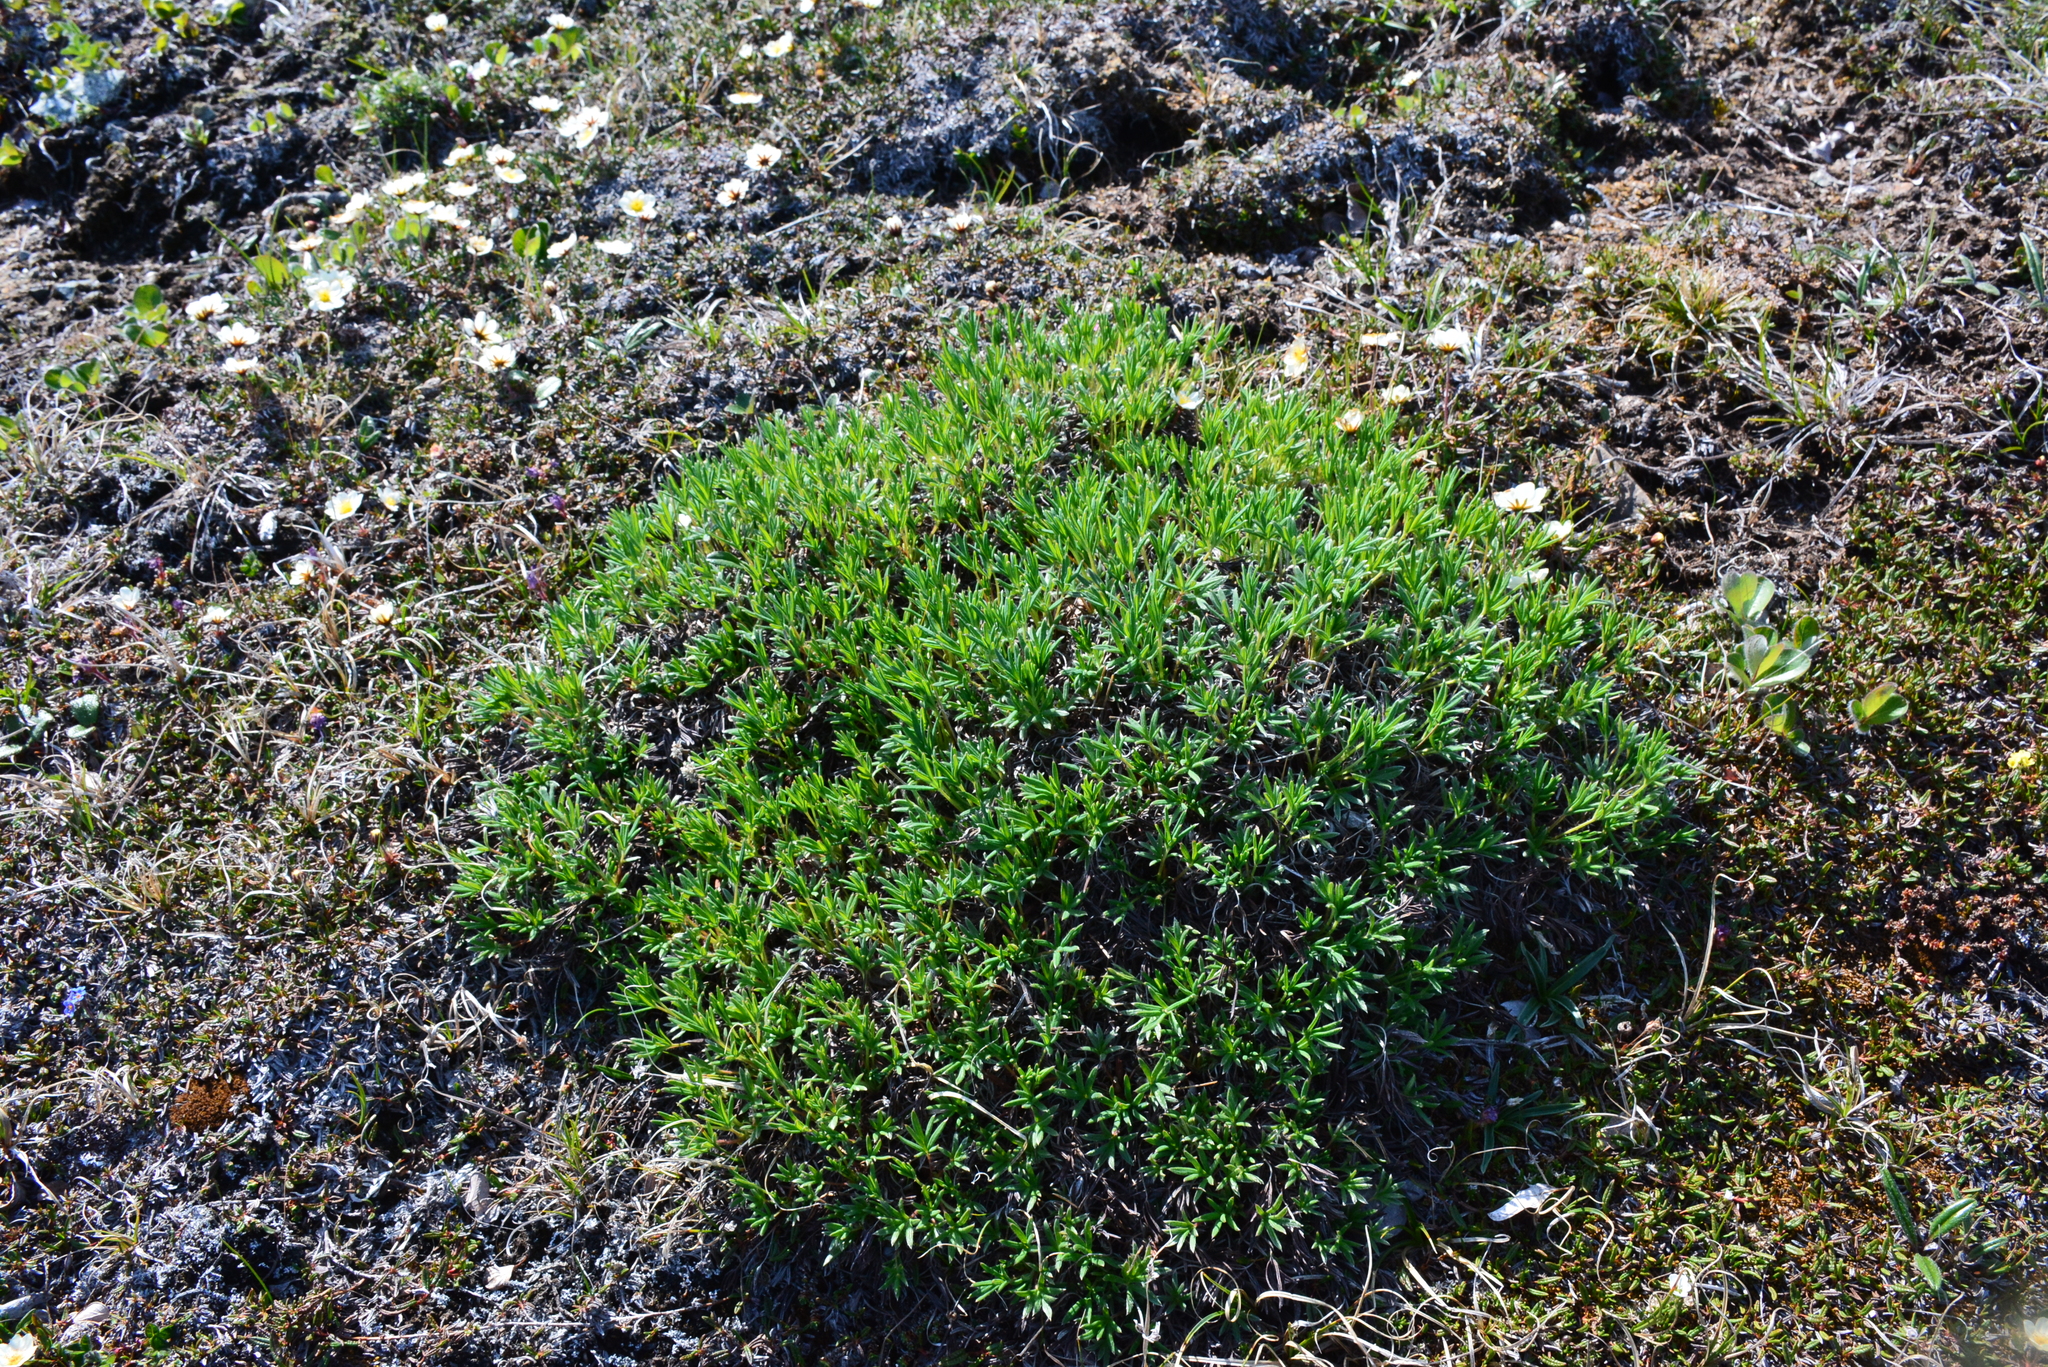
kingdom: Plantae
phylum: Tracheophyta
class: Magnoliopsida
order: Rosales
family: Rosaceae
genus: Potentilla
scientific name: Potentilla biflora
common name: Two-flowered cinquefoil
